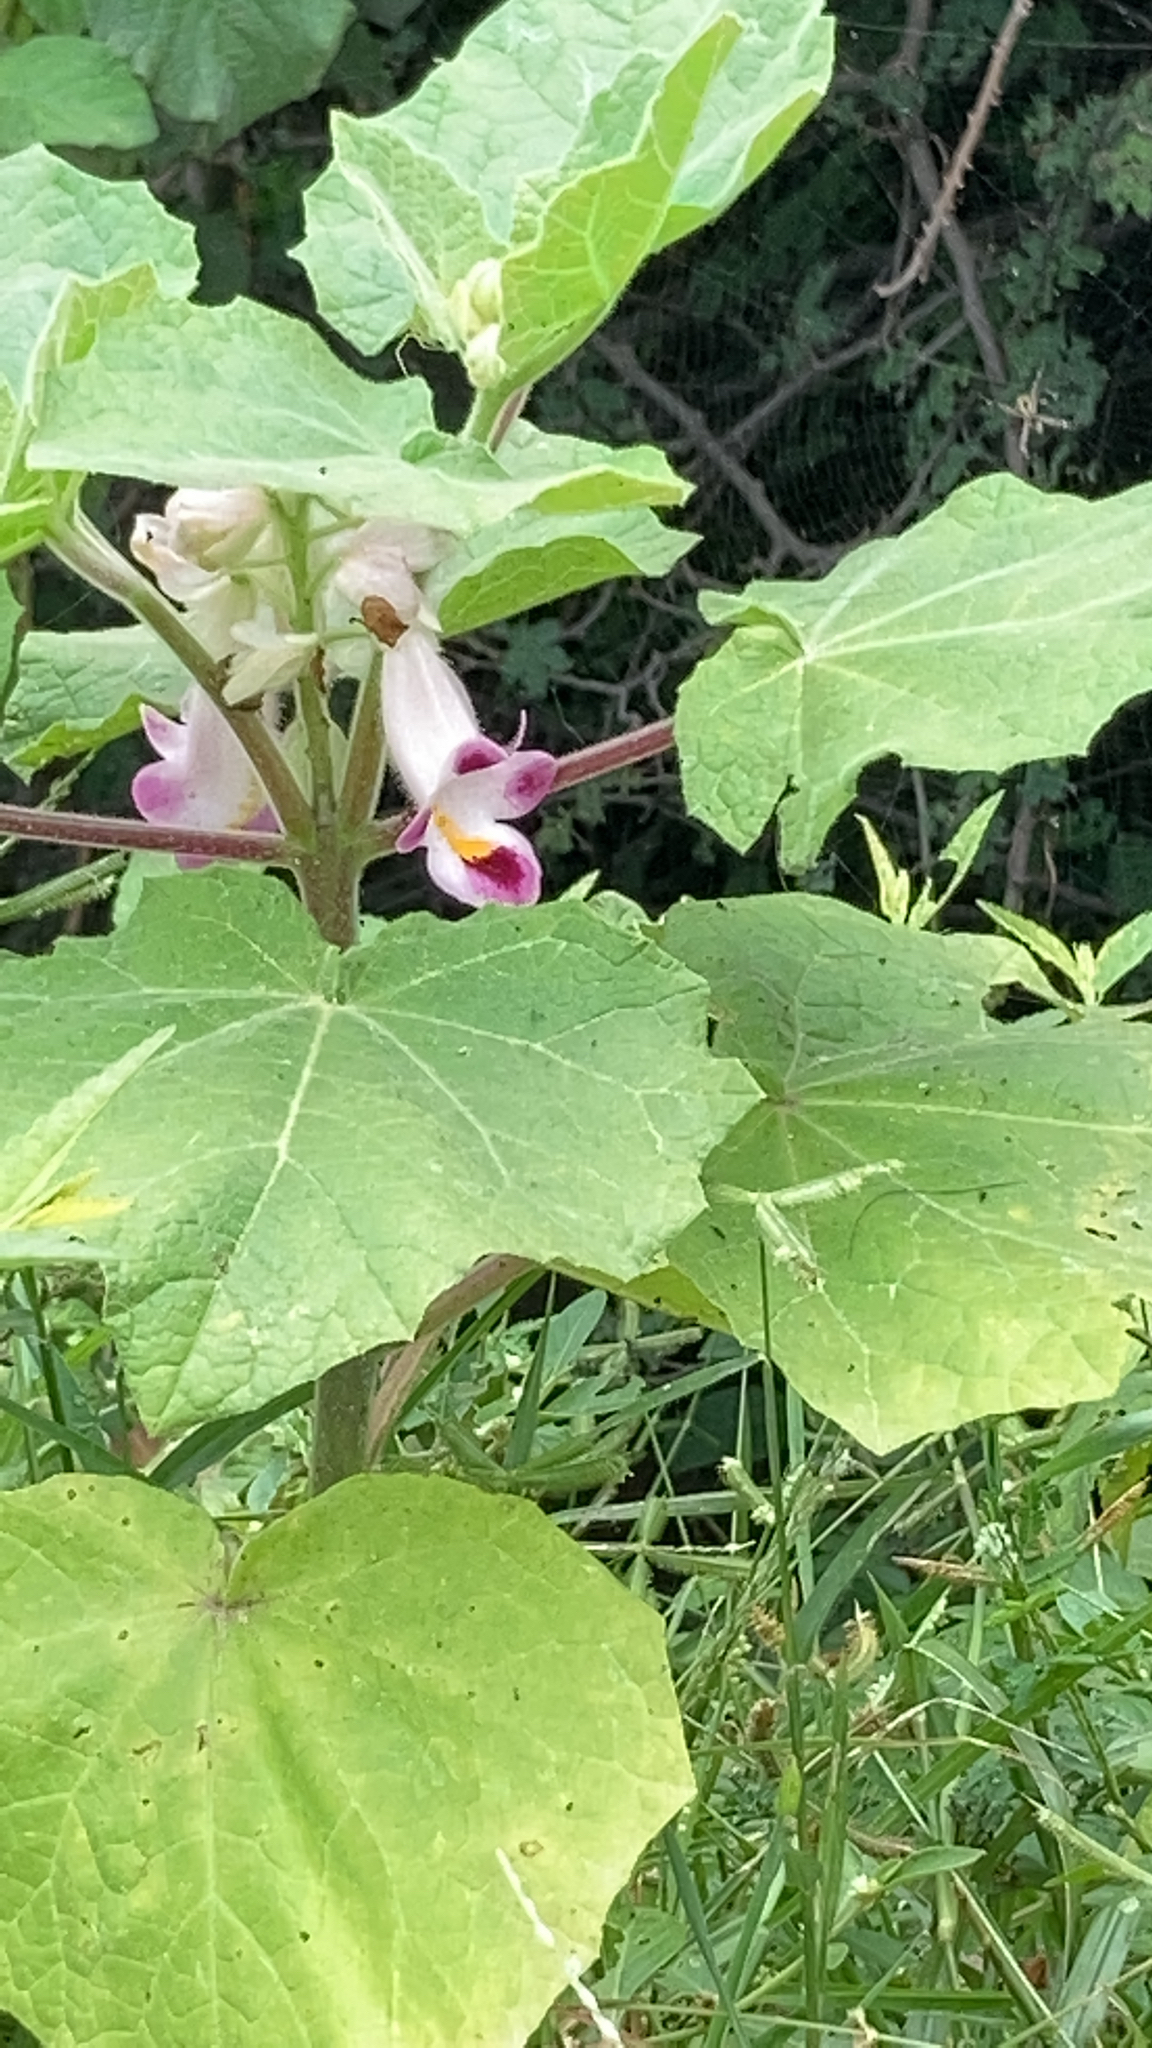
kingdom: Plantae
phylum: Tracheophyta
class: Magnoliopsida
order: Lamiales
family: Martyniaceae
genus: Martynia
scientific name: Martynia annua
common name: Tiger's-claw
